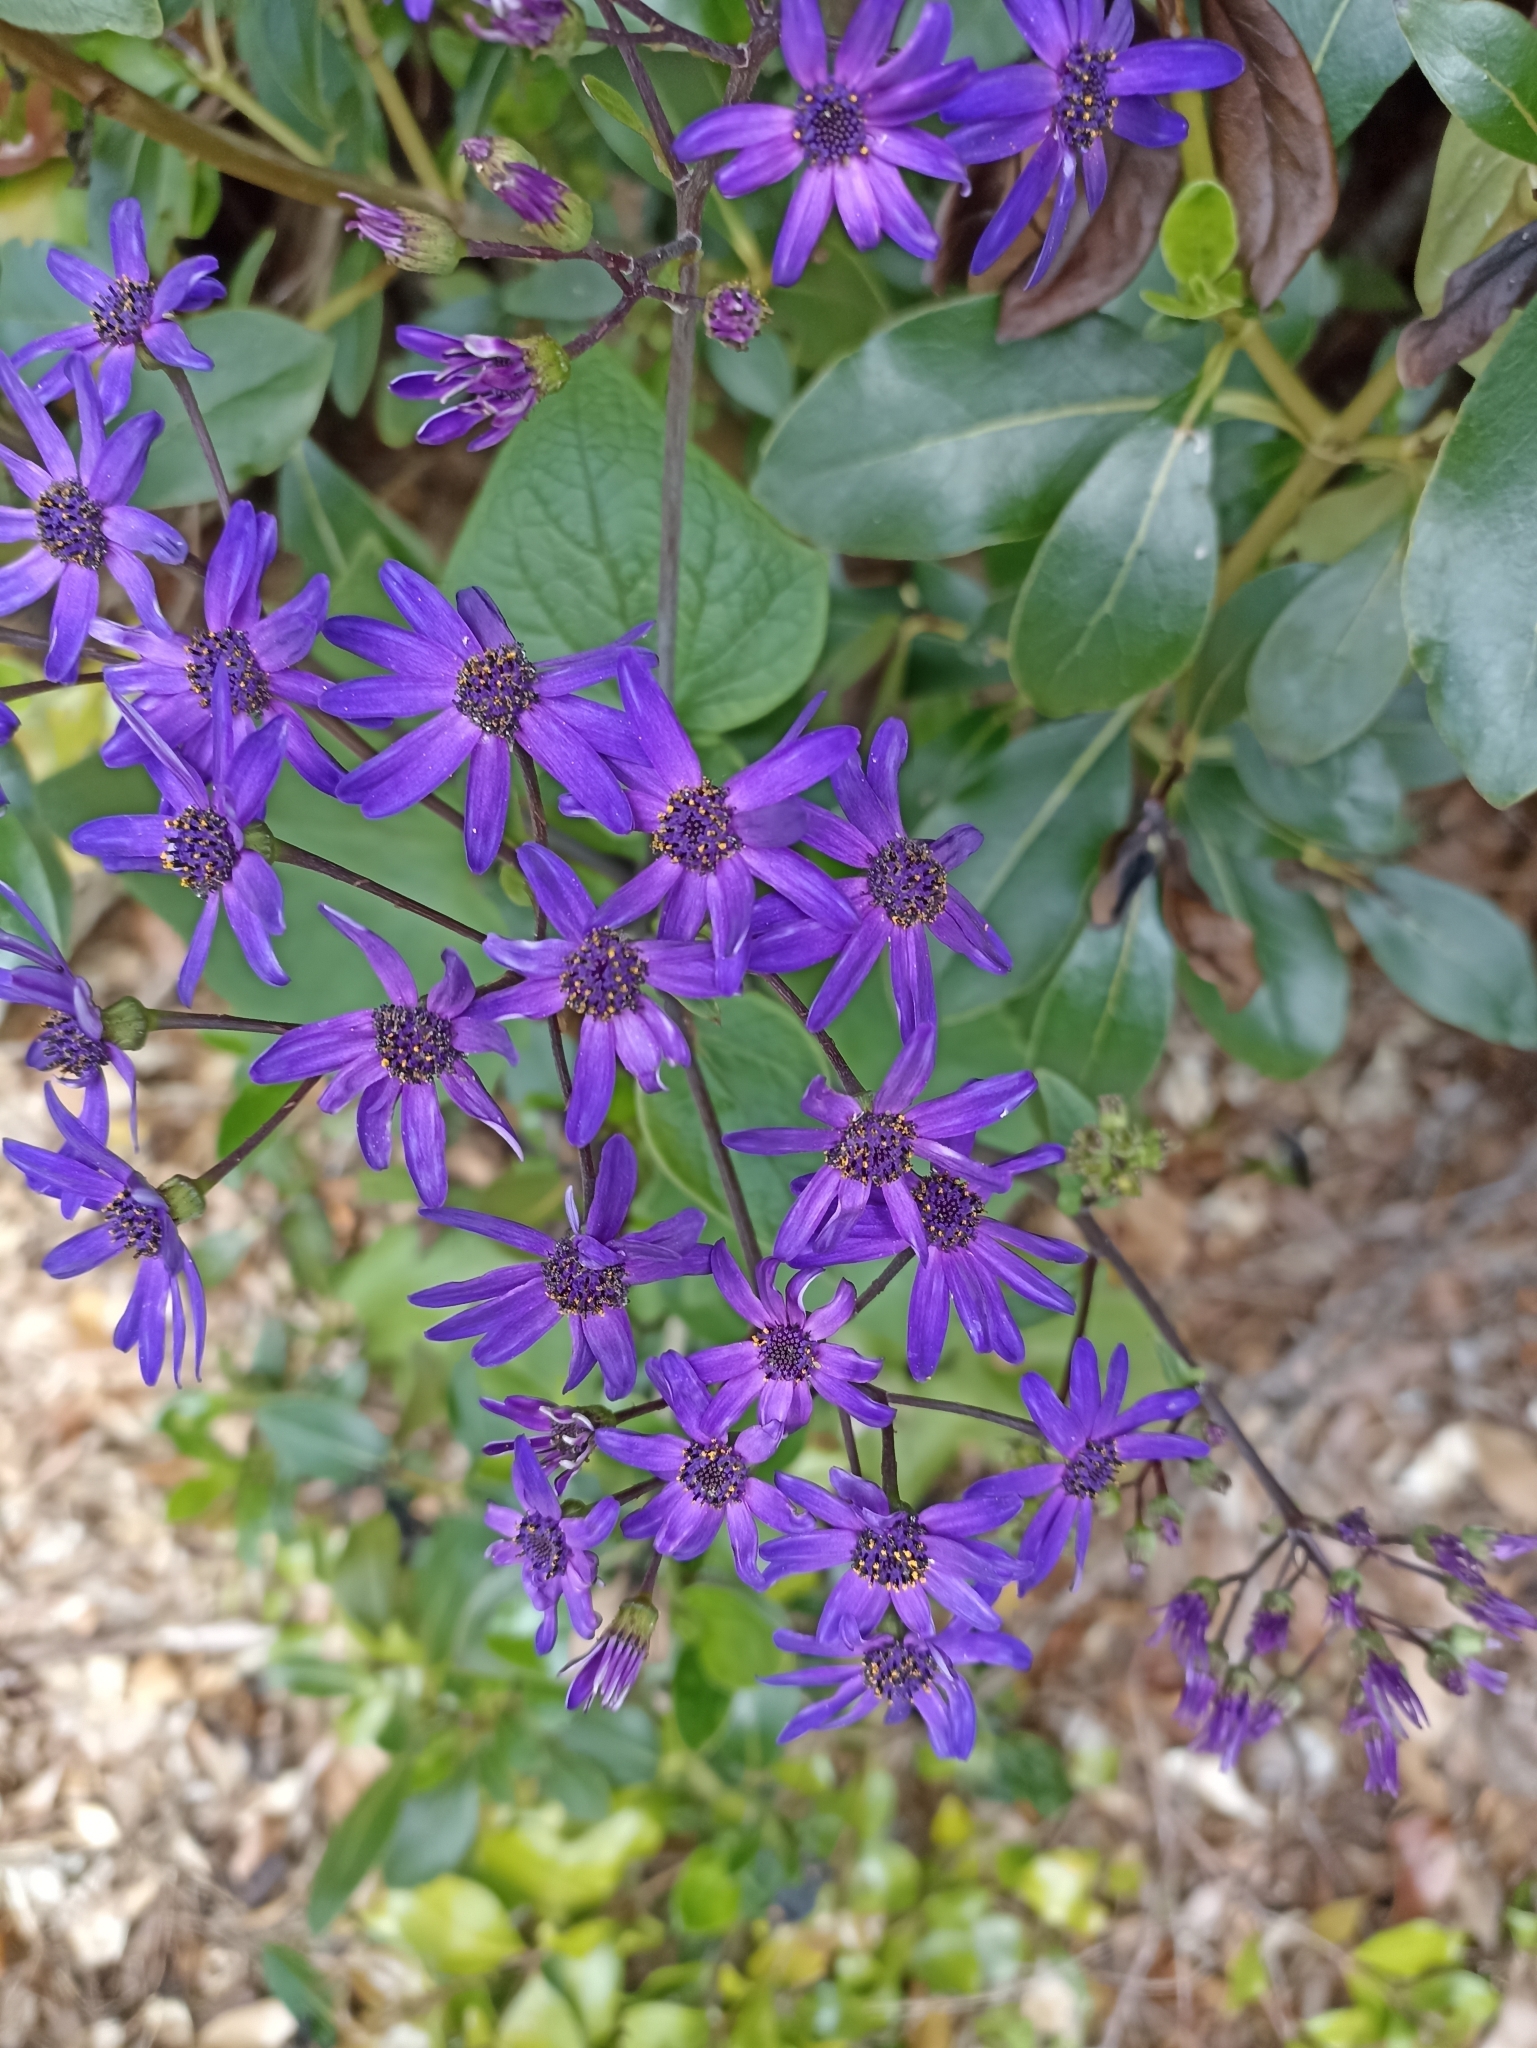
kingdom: Plantae
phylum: Tracheophyta
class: Magnoliopsida
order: Asterales
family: Asteraceae
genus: Pericallis
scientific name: Pericallis hybrida
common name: Cineraria
